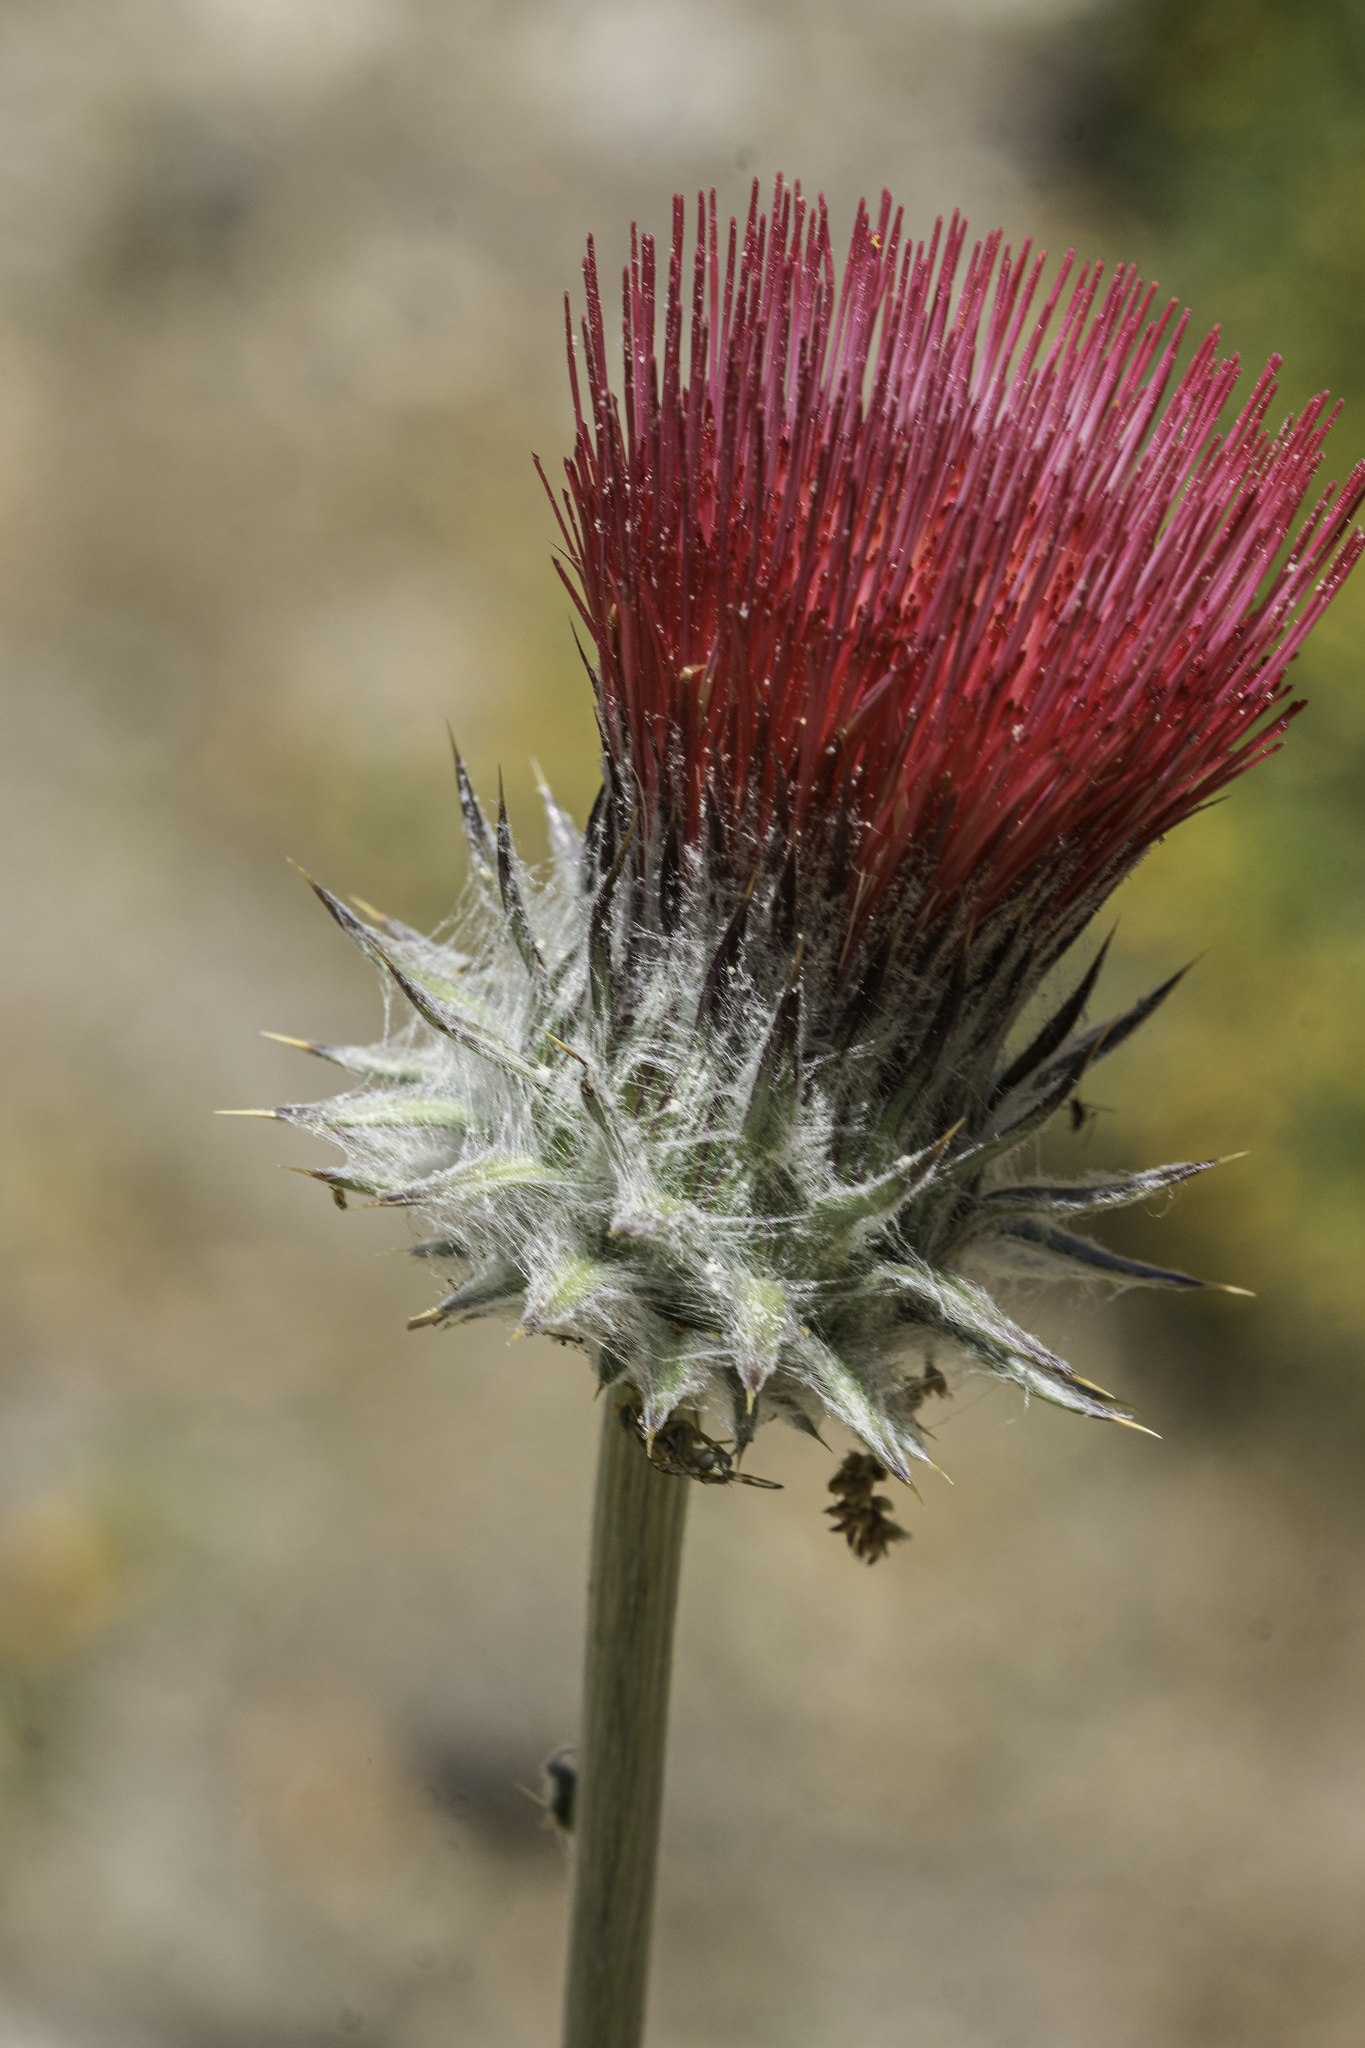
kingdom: Plantae
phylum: Tracheophyta
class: Magnoliopsida
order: Asterales
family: Asteraceae
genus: Cirsium
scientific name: Cirsium occidentale
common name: Western thistle
